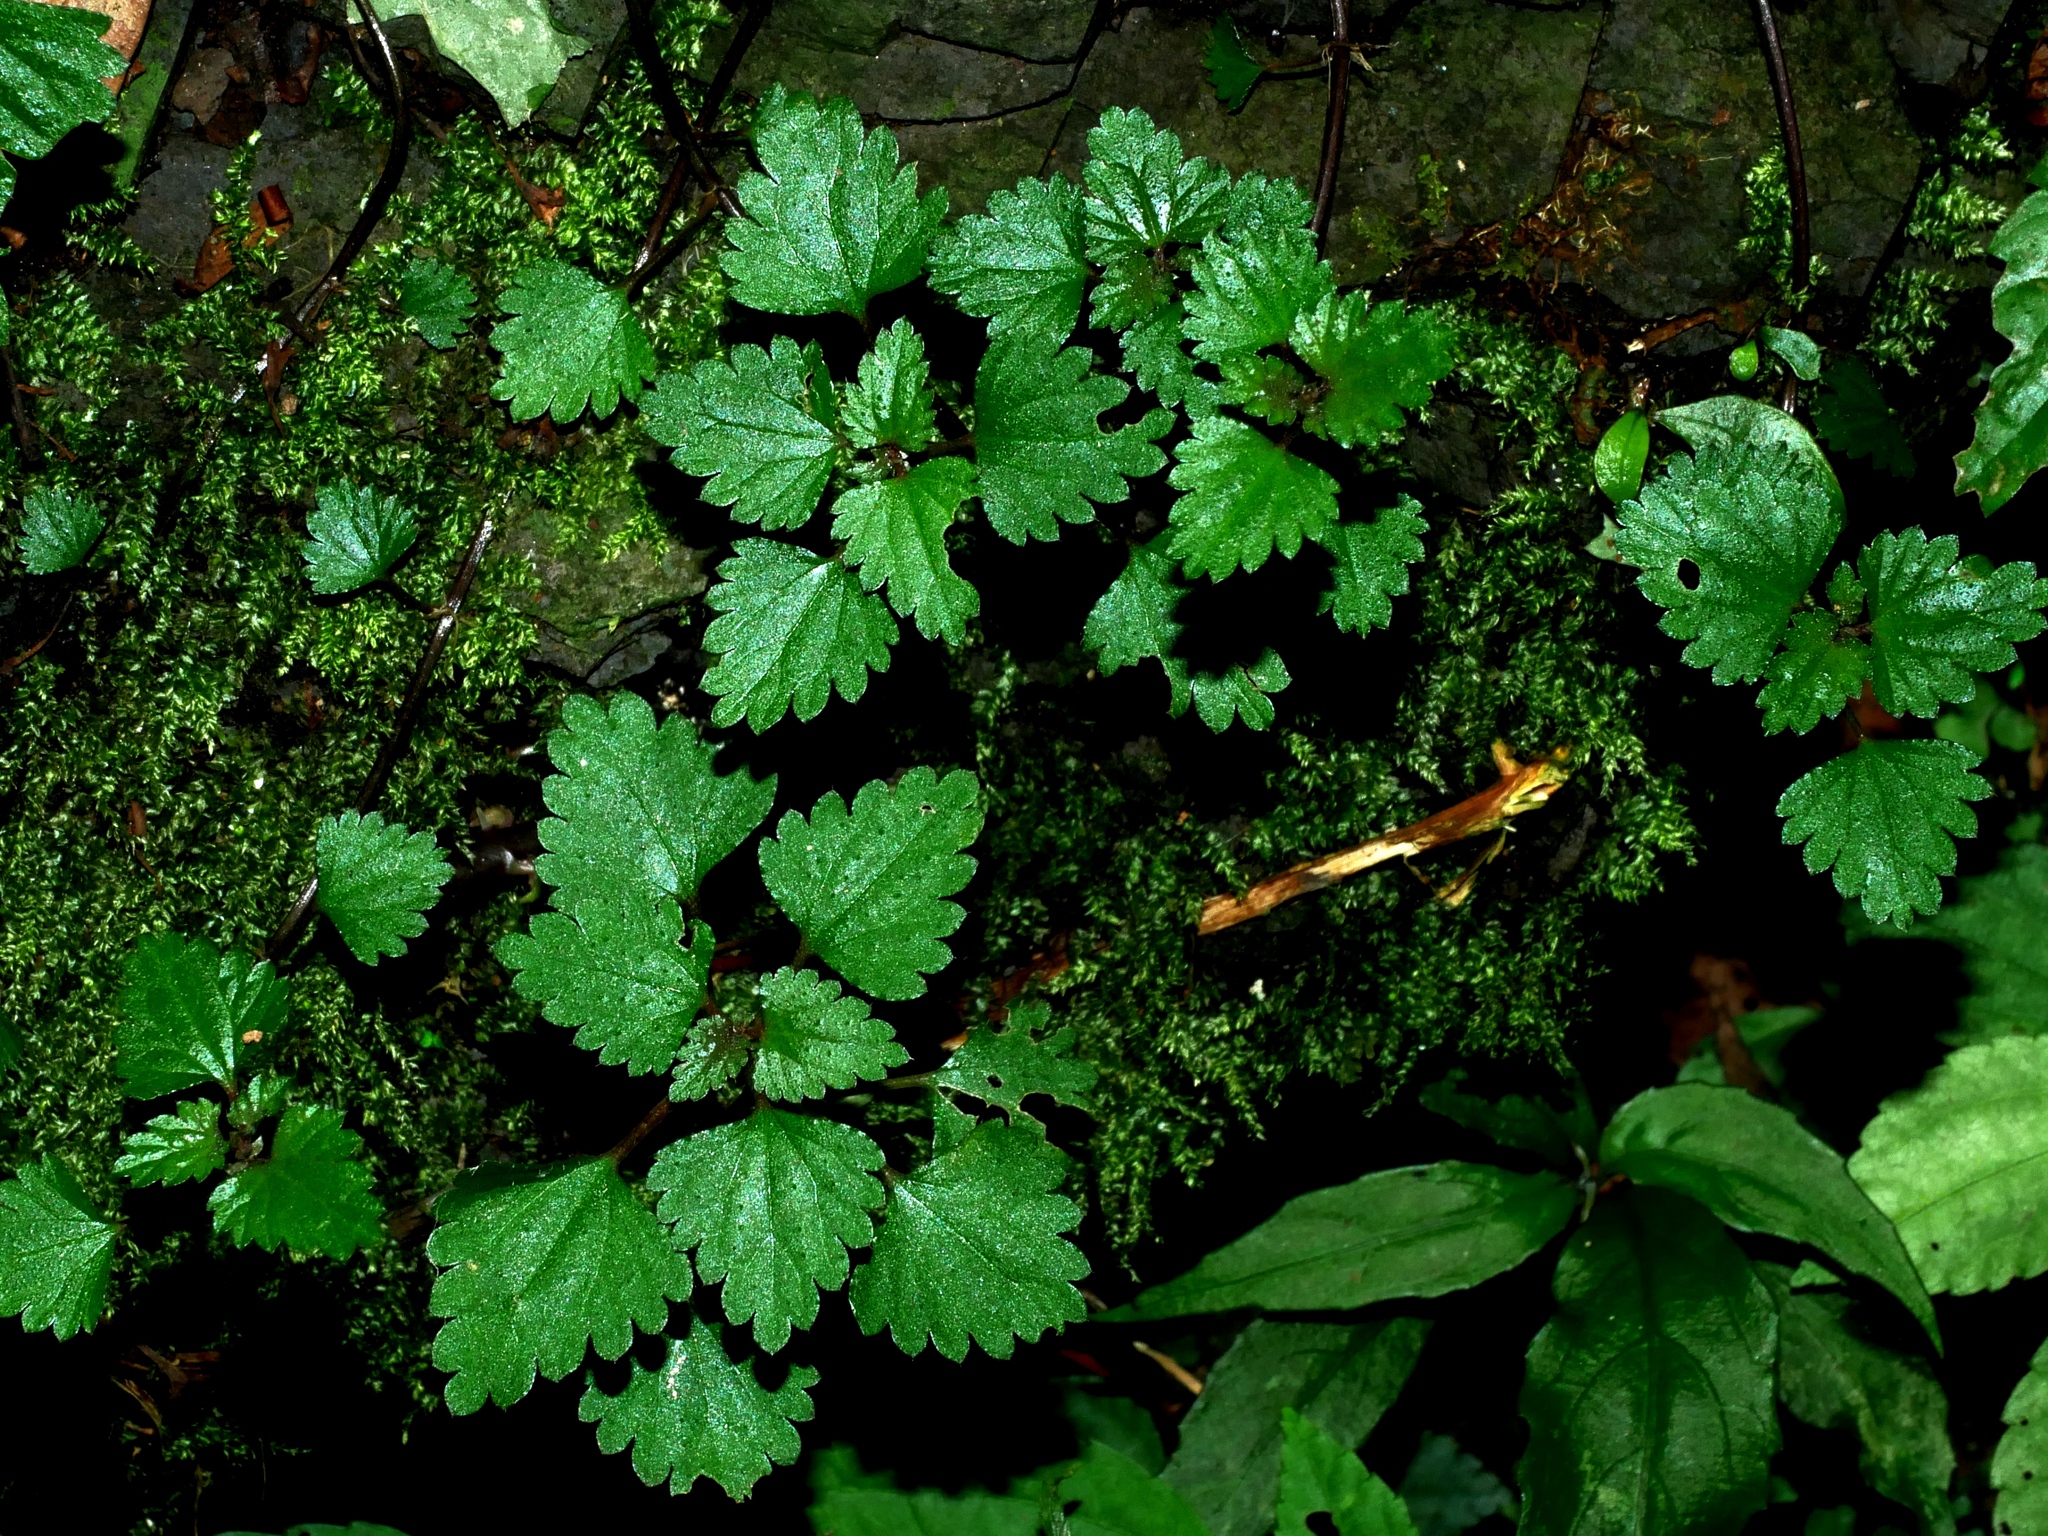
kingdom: Plantae
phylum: Tracheophyta
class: Magnoliopsida
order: Rosales
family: Urticaceae
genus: Nanocnide
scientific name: Nanocnide japonica
